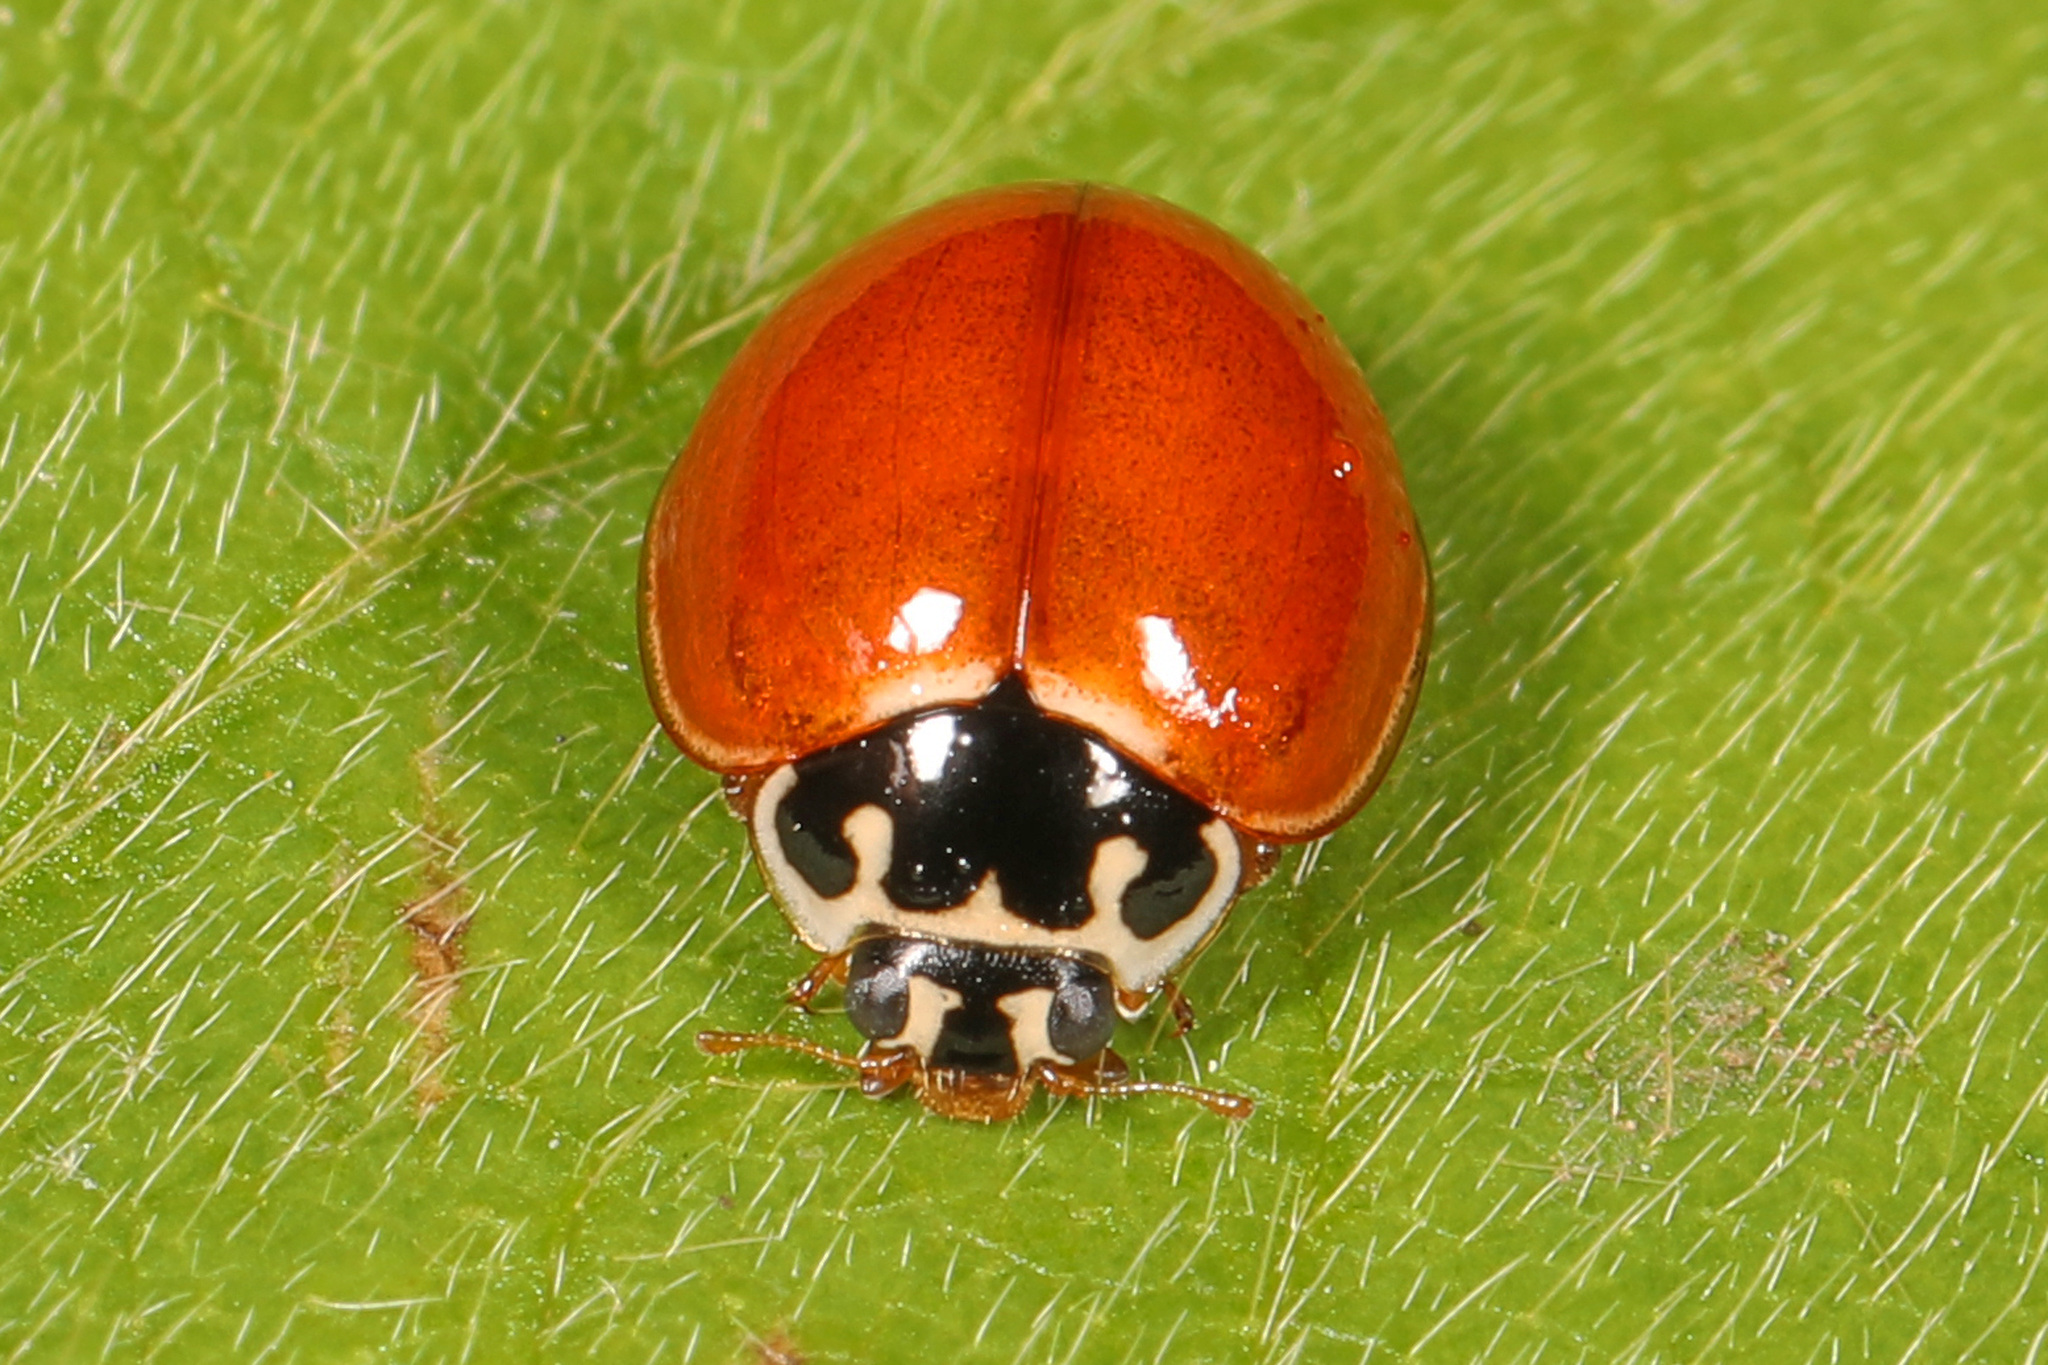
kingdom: Animalia
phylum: Arthropoda
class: Insecta
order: Coleoptera
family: Coccinellidae
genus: Cycloneda
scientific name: Cycloneda munda
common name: Polished lady beetle
